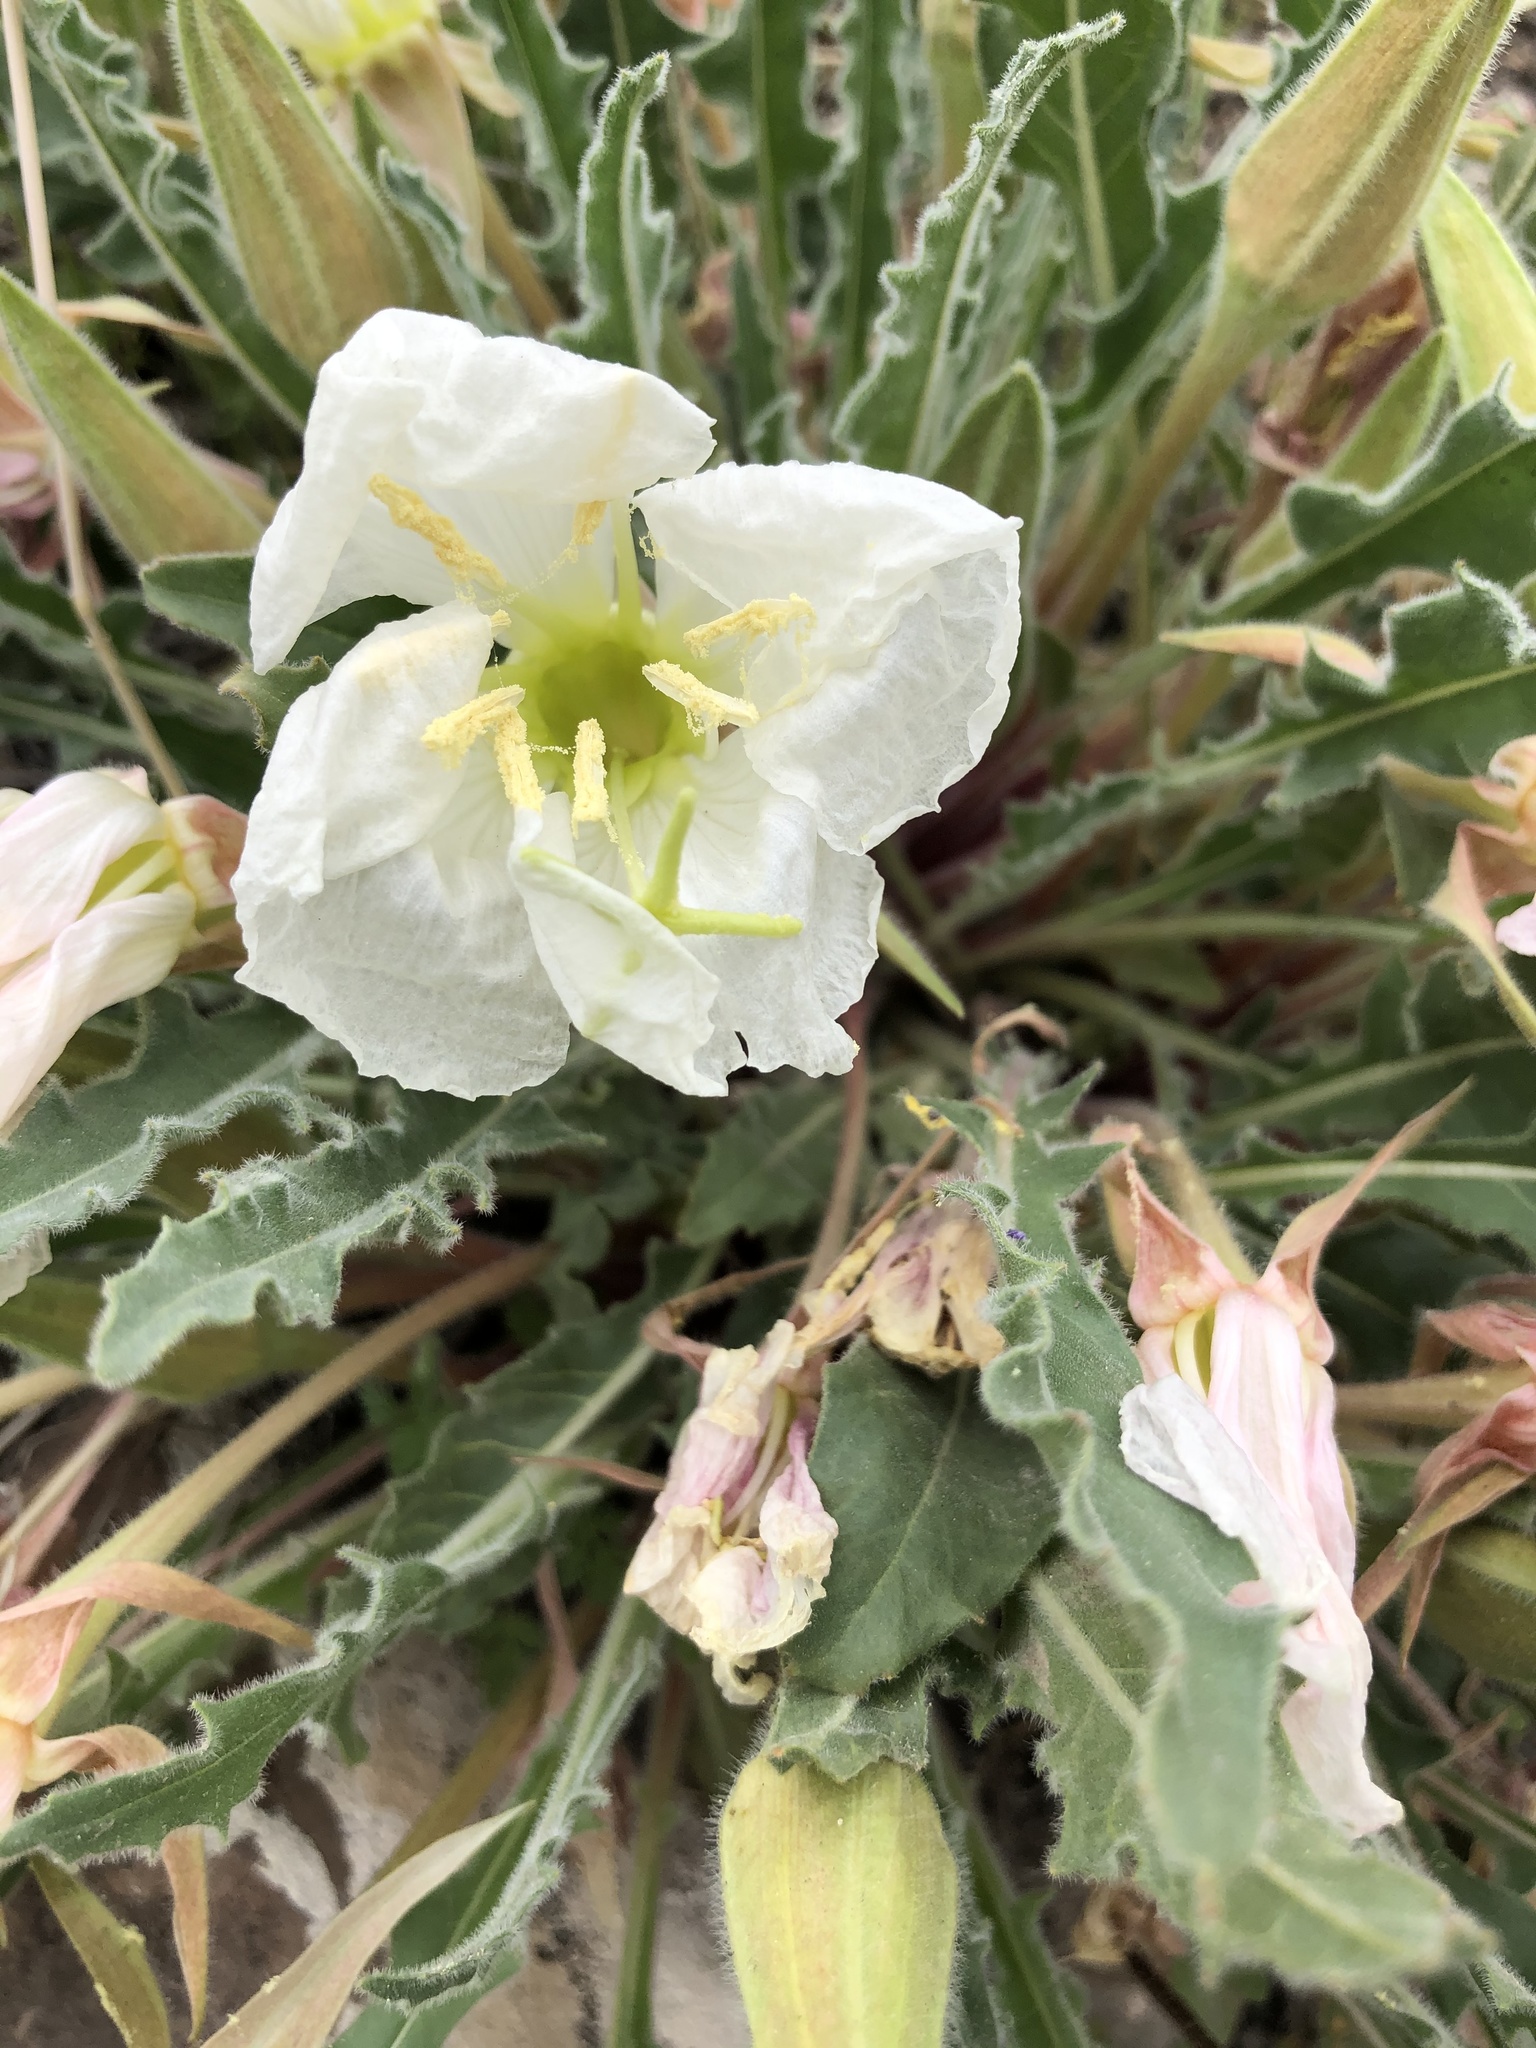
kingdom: Plantae
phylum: Tracheophyta
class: Magnoliopsida
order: Myrtales
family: Onagraceae
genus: Oenothera
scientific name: Oenothera cespitosa
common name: Tufted evening-primrose
